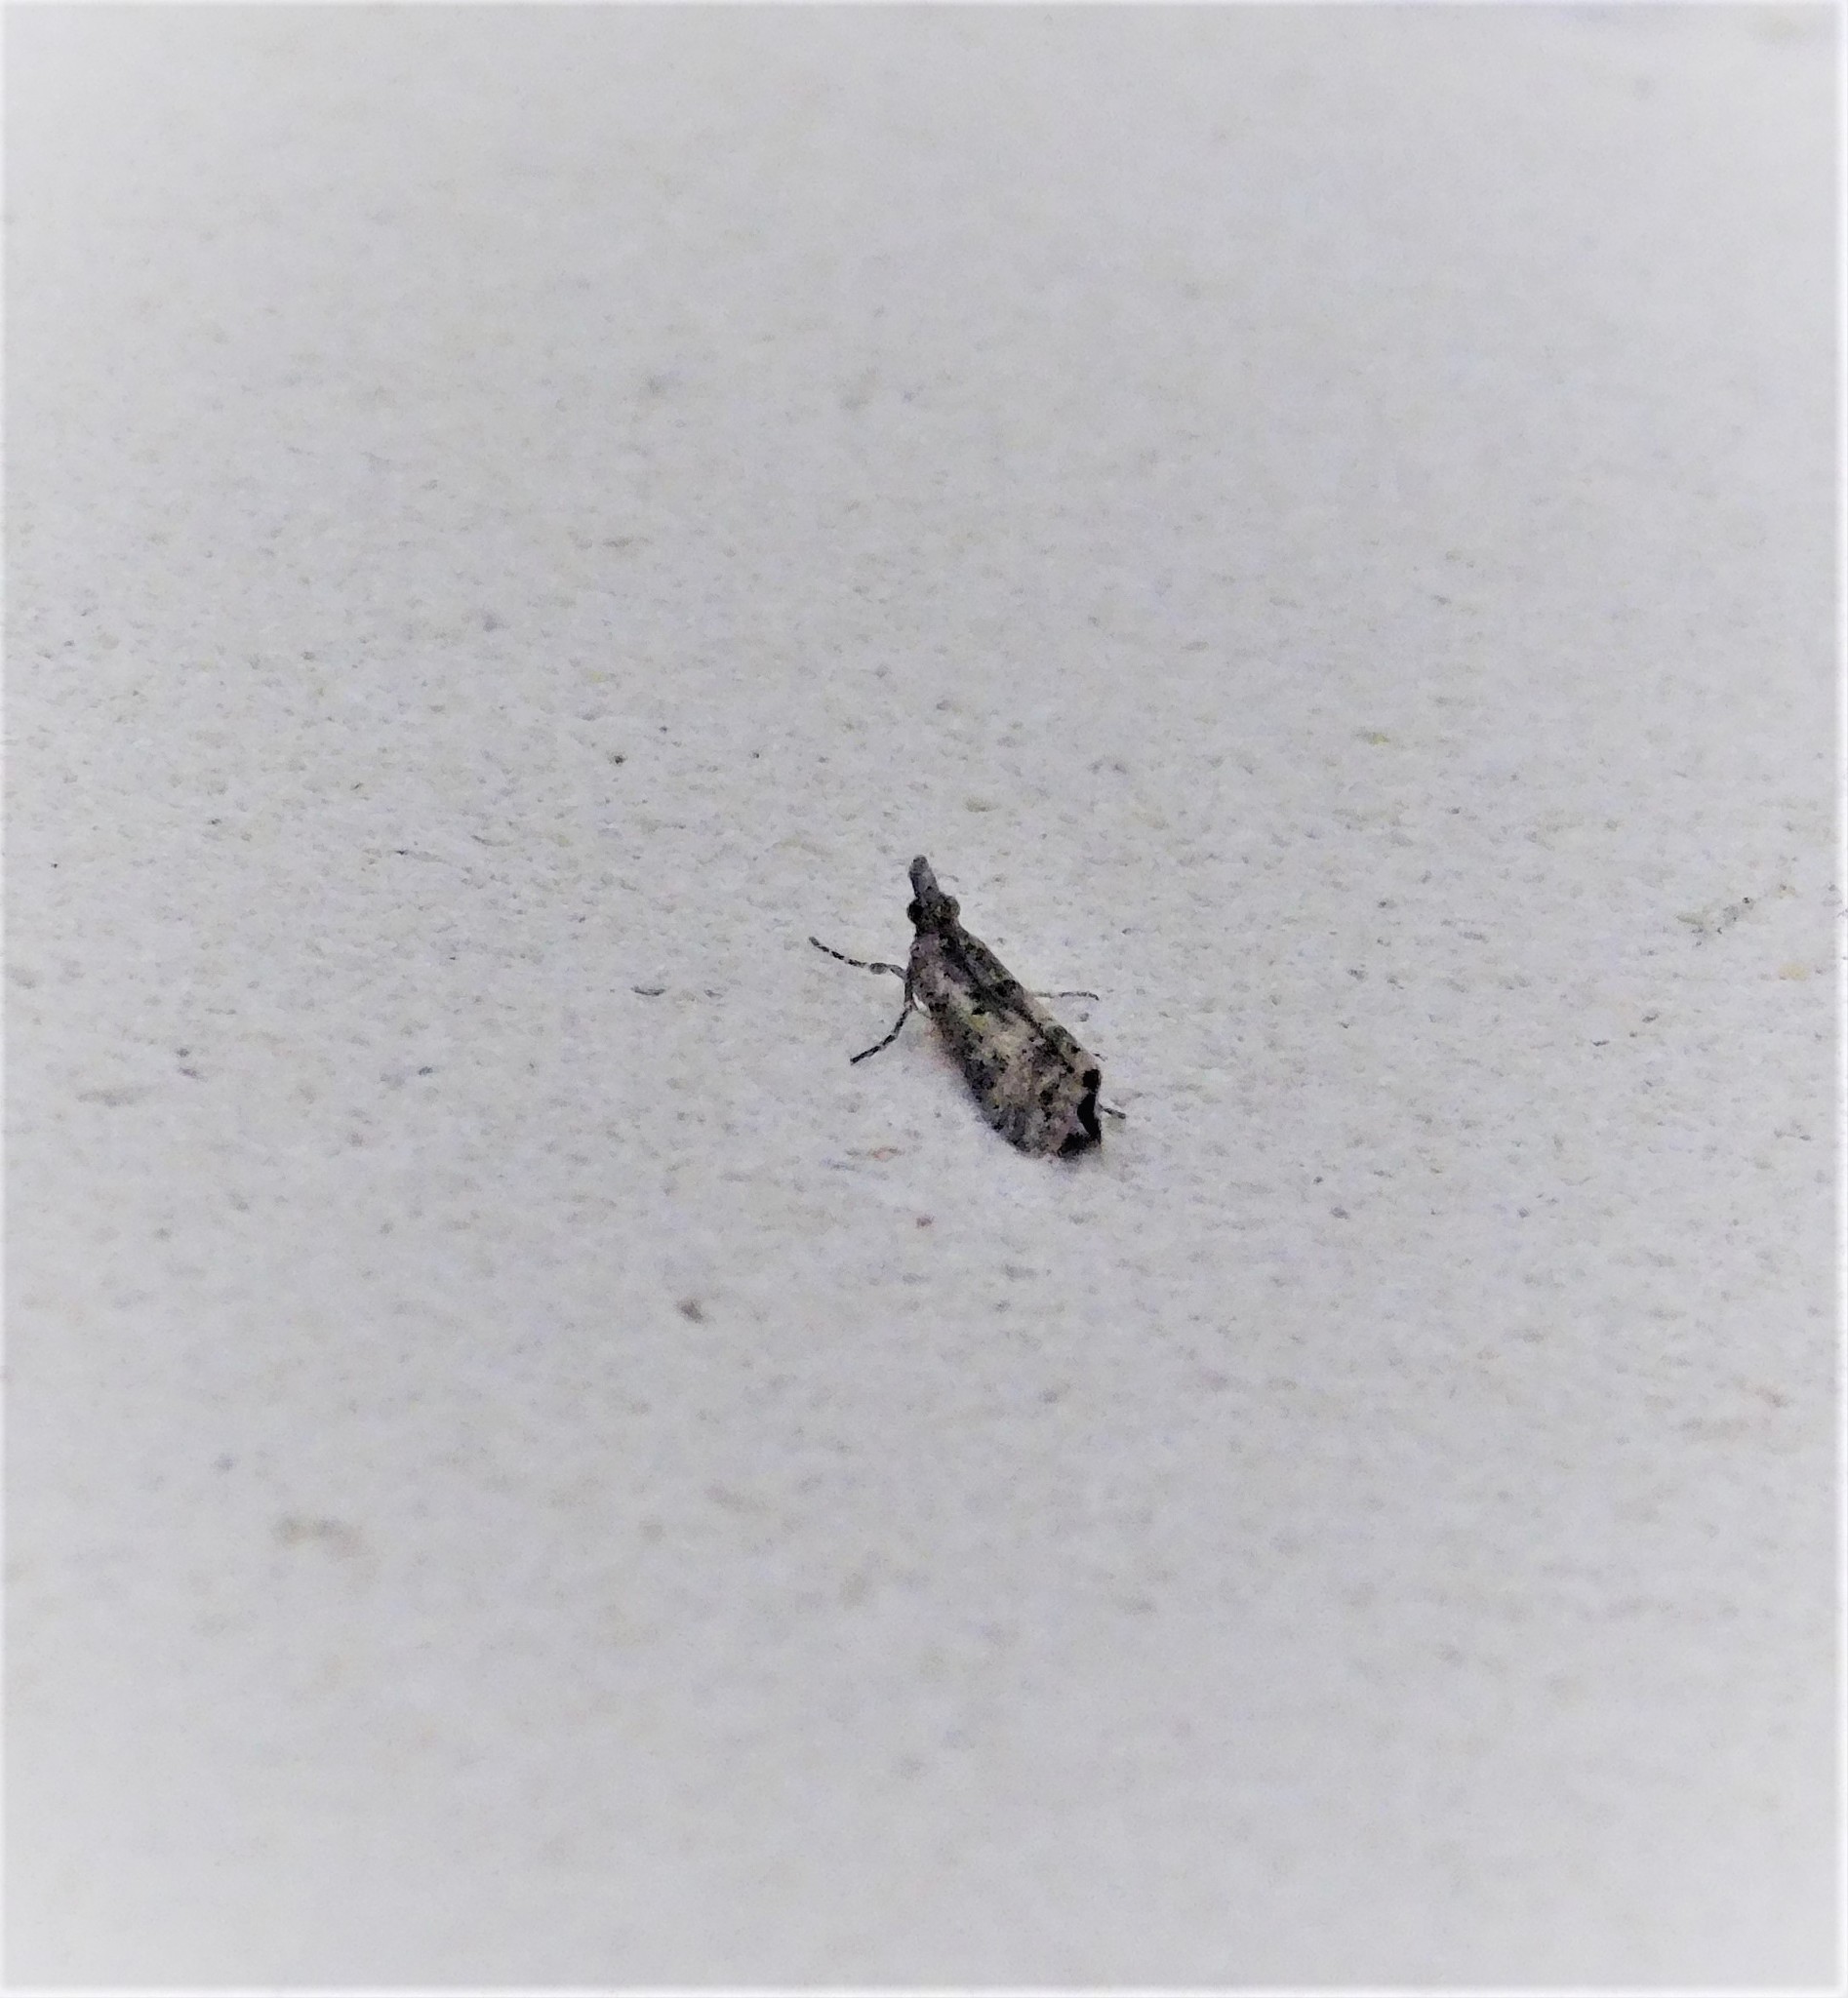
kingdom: Animalia
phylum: Arthropoda
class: Insecta
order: Lepidoptera
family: Crambidae
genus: Eudonia
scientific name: Eudonia leptalea
